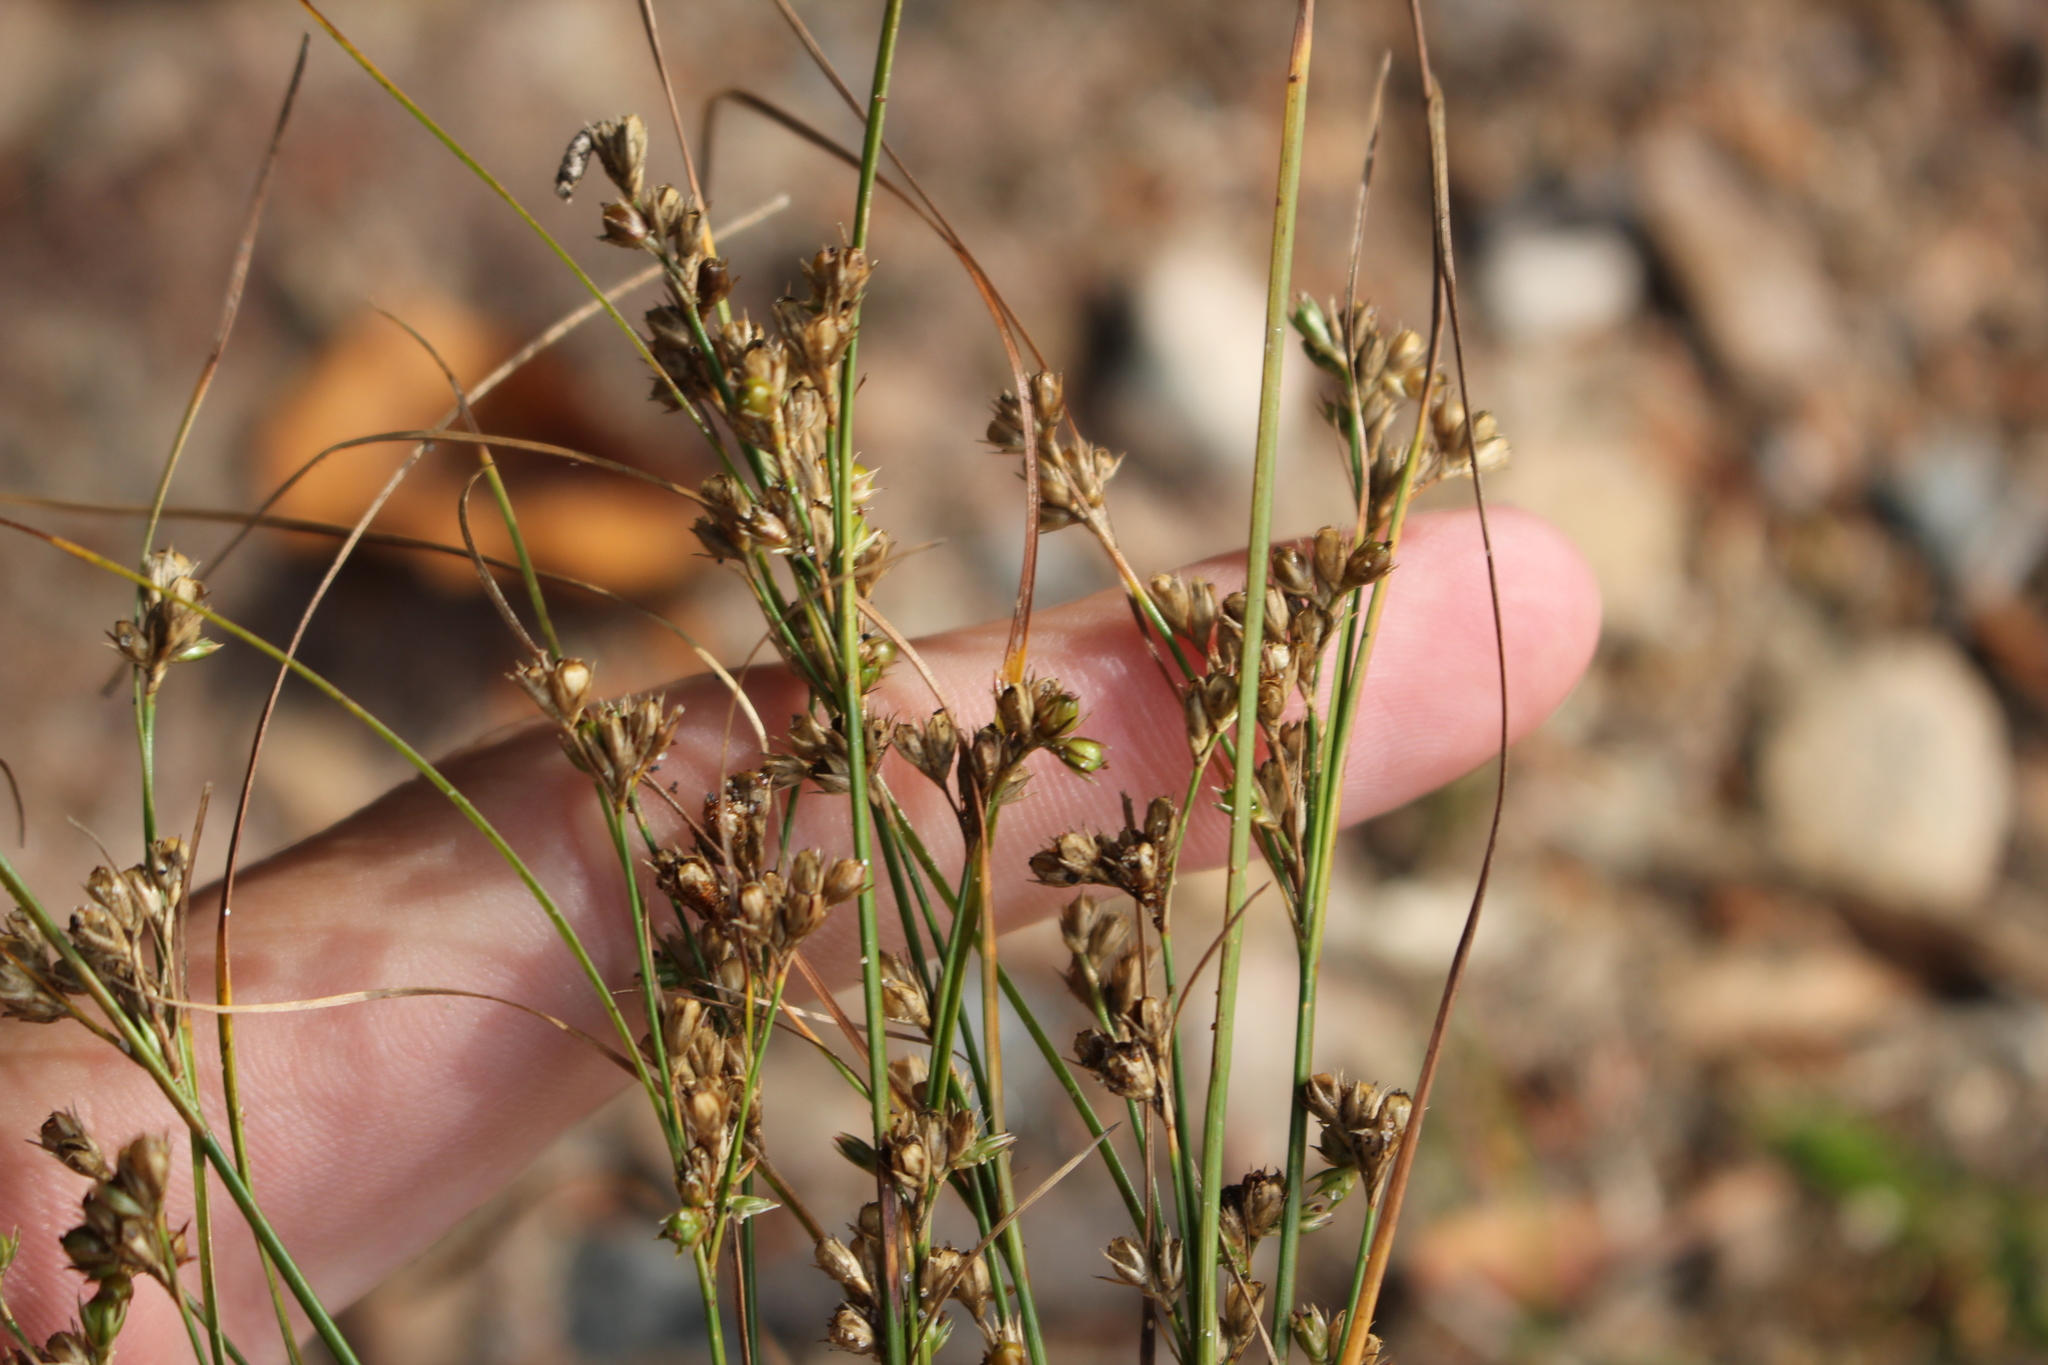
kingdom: Plantae
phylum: Tracheophyta
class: Liliopsida
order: Poales
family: Juncaceae
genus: Juncus
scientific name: Juncus tenuis
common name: Slender rush
